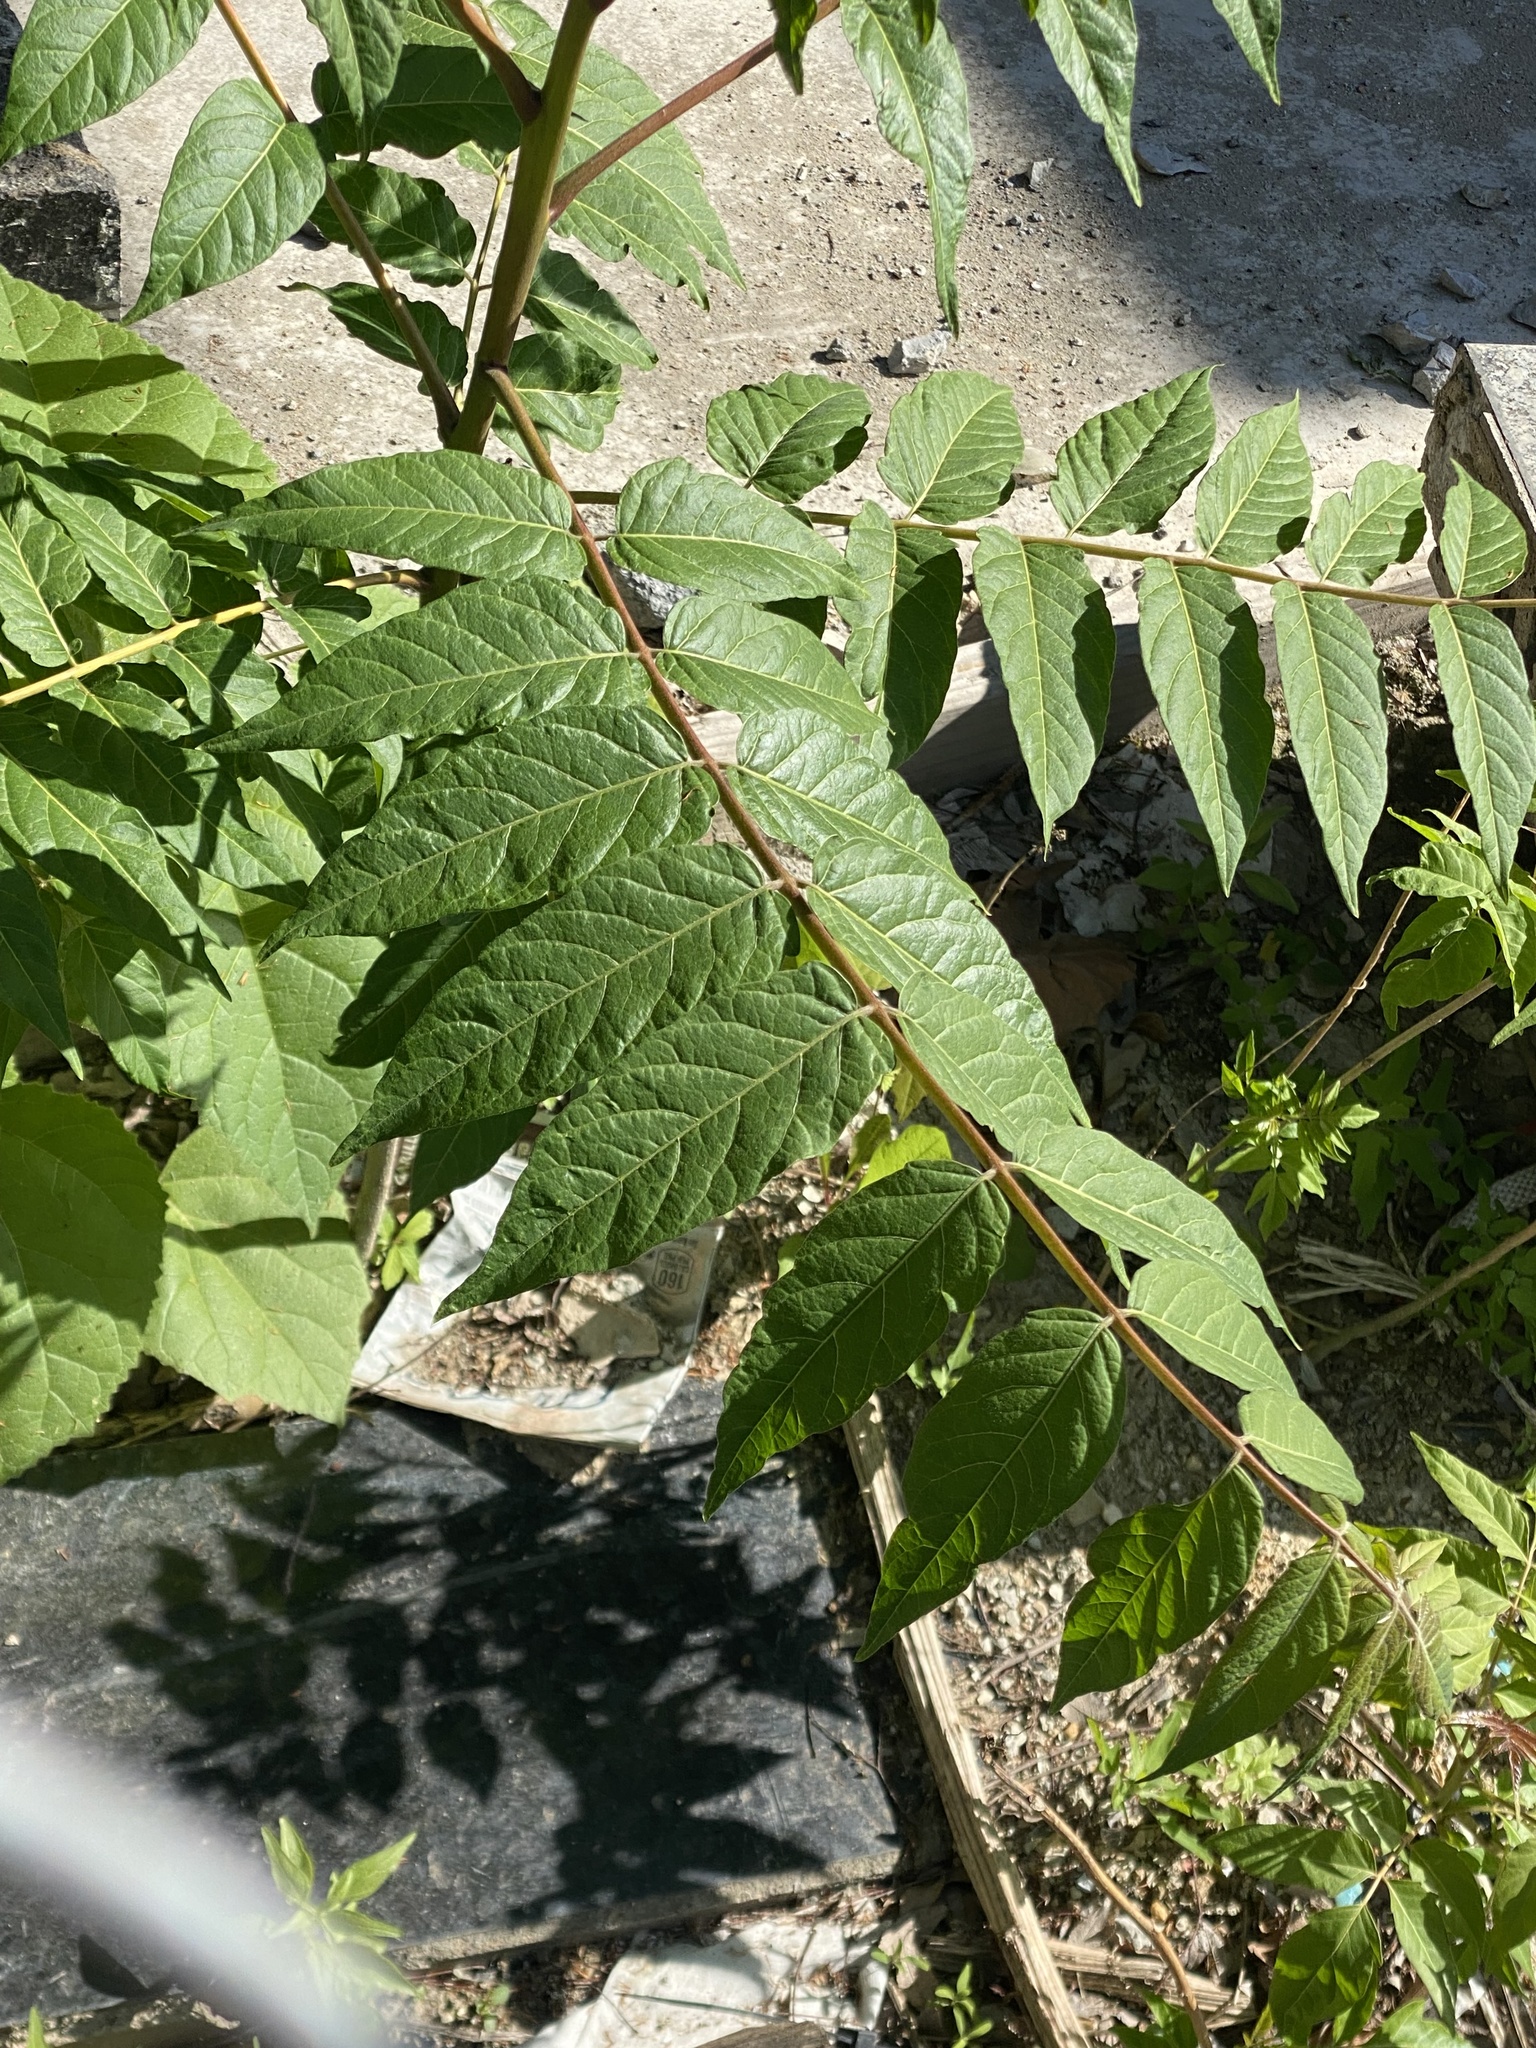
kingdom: Plantae
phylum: Tracheophyta
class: Magnoliopsida
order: Sapindales
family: Simaroubaceae
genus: Ailanthus
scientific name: Ailanthus altissima
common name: Tree-of-heaven
